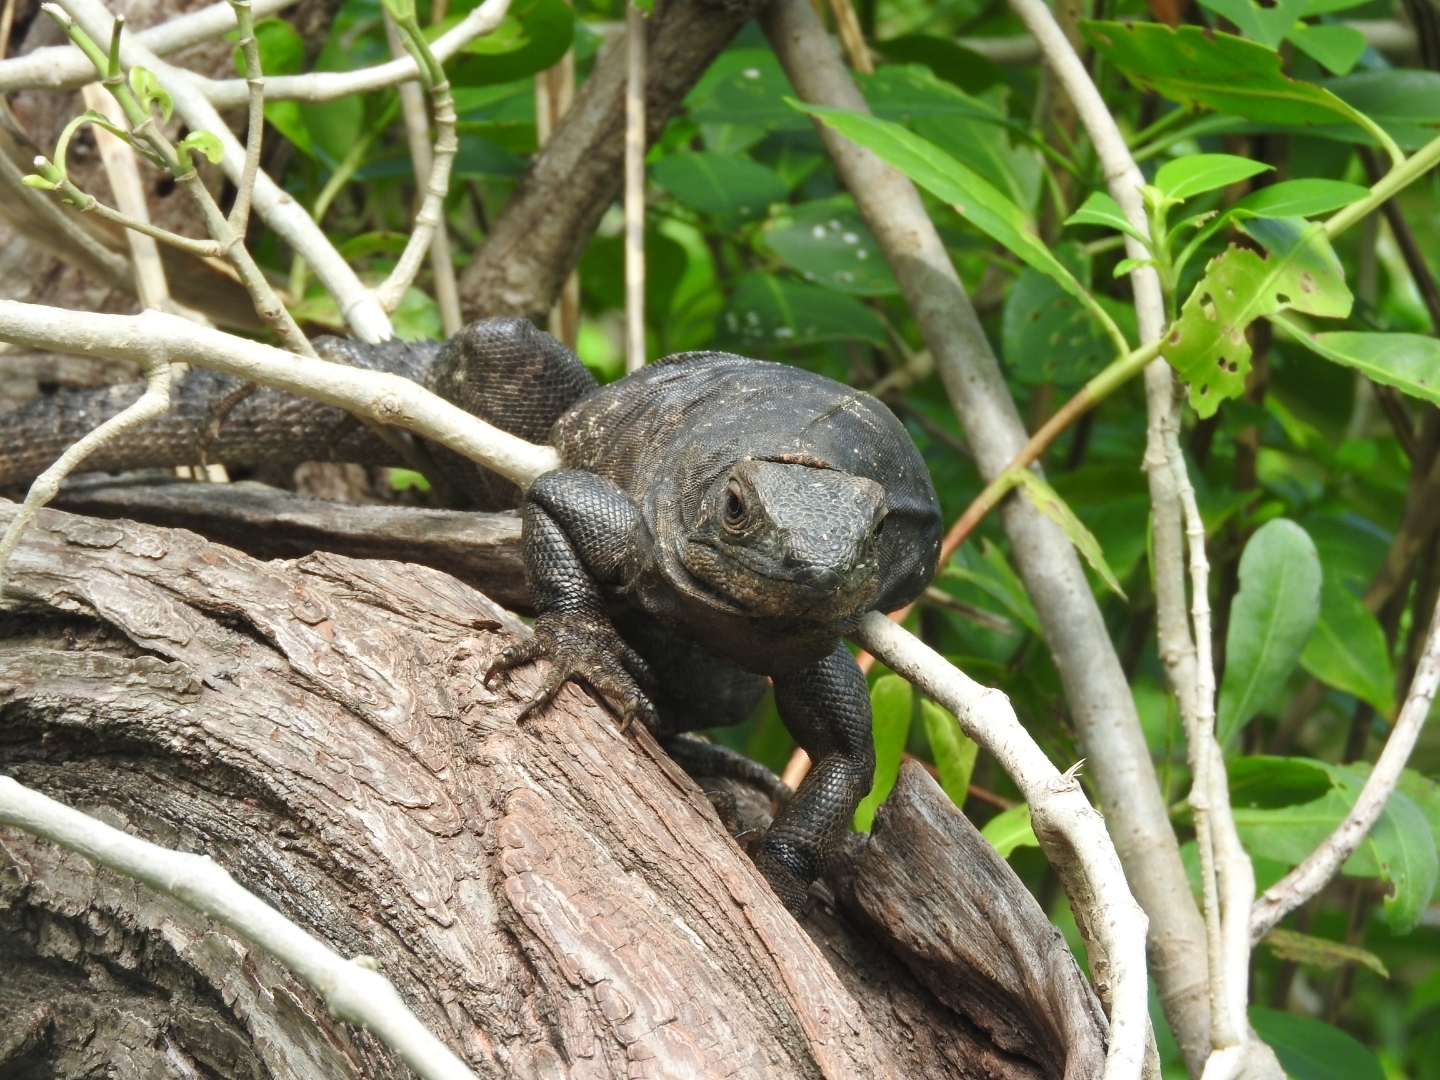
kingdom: Animalia
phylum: Chordata
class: Squamata
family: Iguanidae
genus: Ctenosaura
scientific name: Ctenosaura similis
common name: Black spiny-tailed iguana
